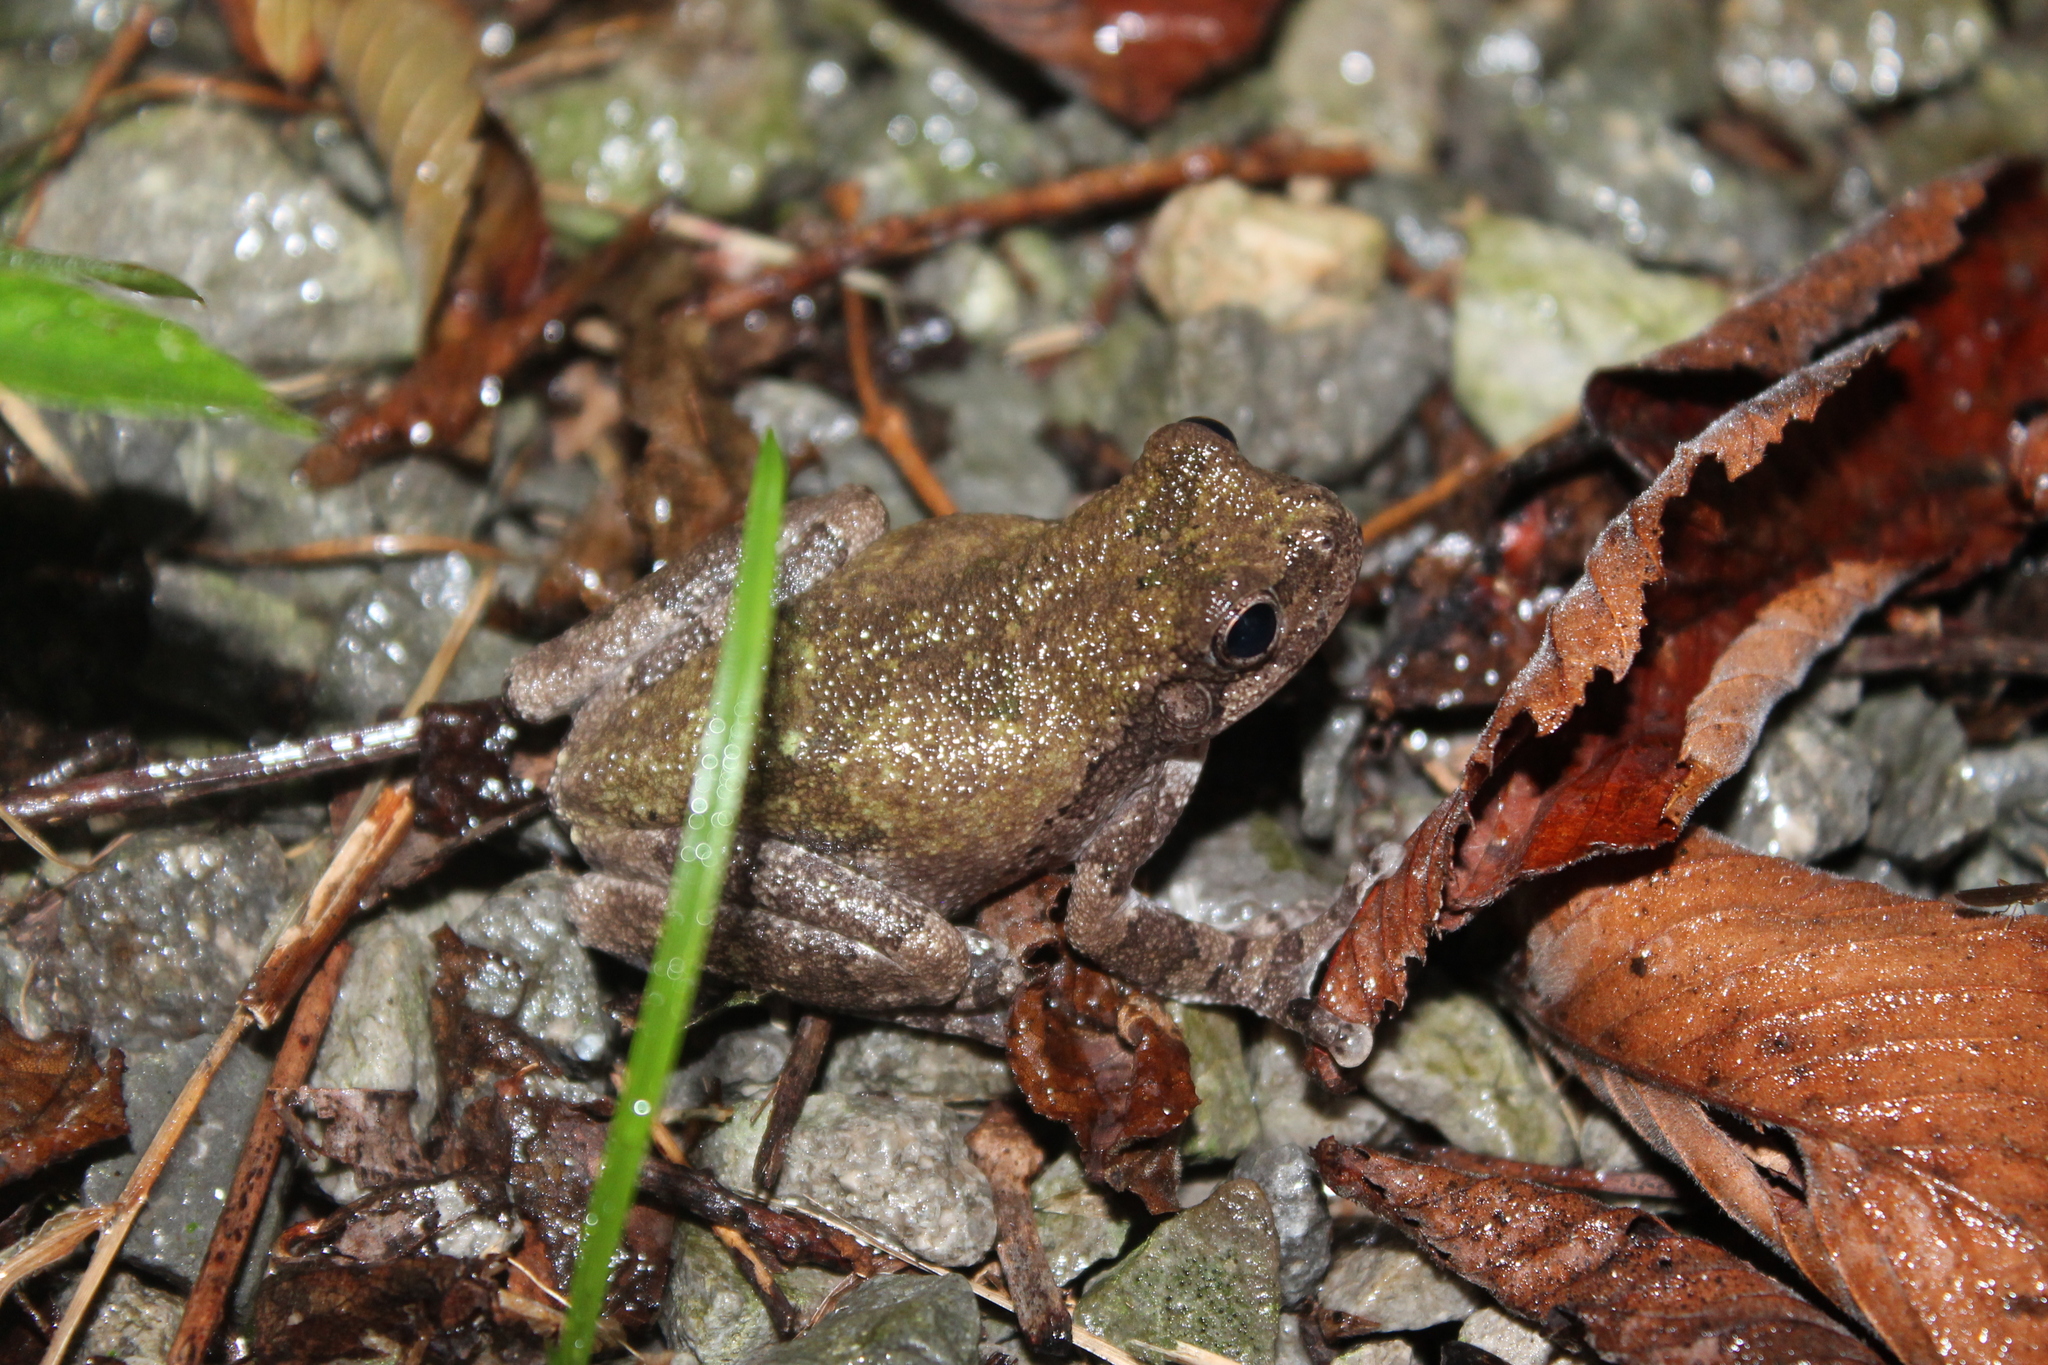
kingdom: Animalia
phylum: Chordata
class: Amphibia
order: Anura
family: Hylidae
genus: Dryophytes
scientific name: Dryophytes avivoca
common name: Bird-voiced treefrog
